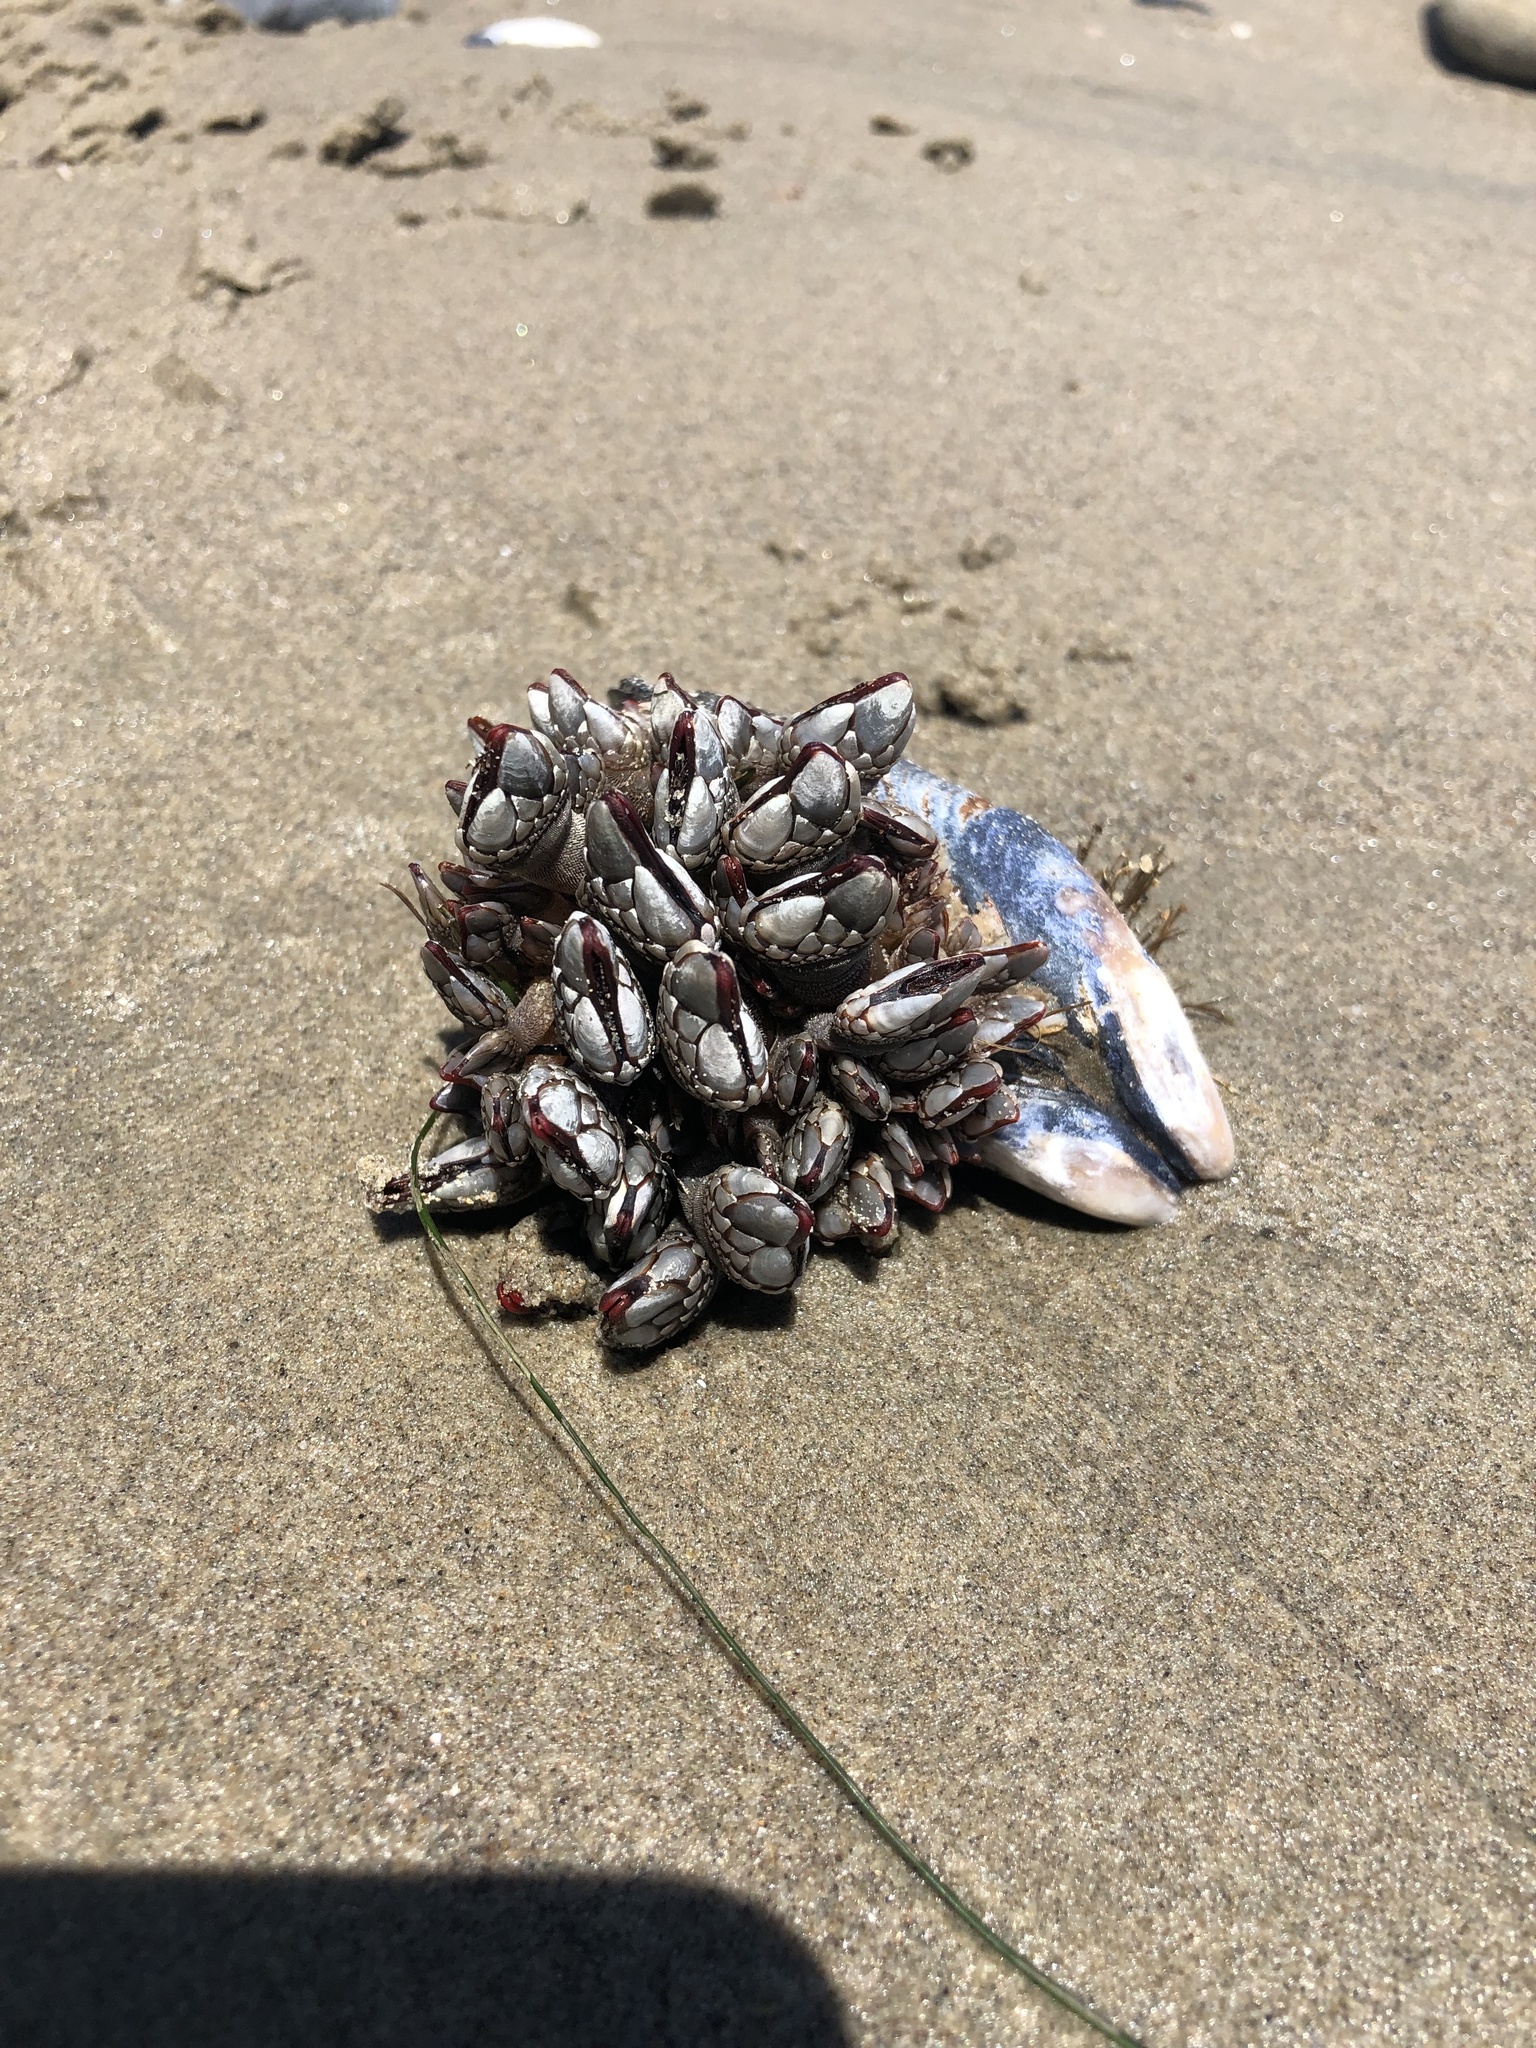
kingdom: Animalia
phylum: Arthropoda
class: Maxillopoda
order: Pedunculata
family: Pollicipedidae
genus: Pollicipes
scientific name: Pollicipes polymerus
